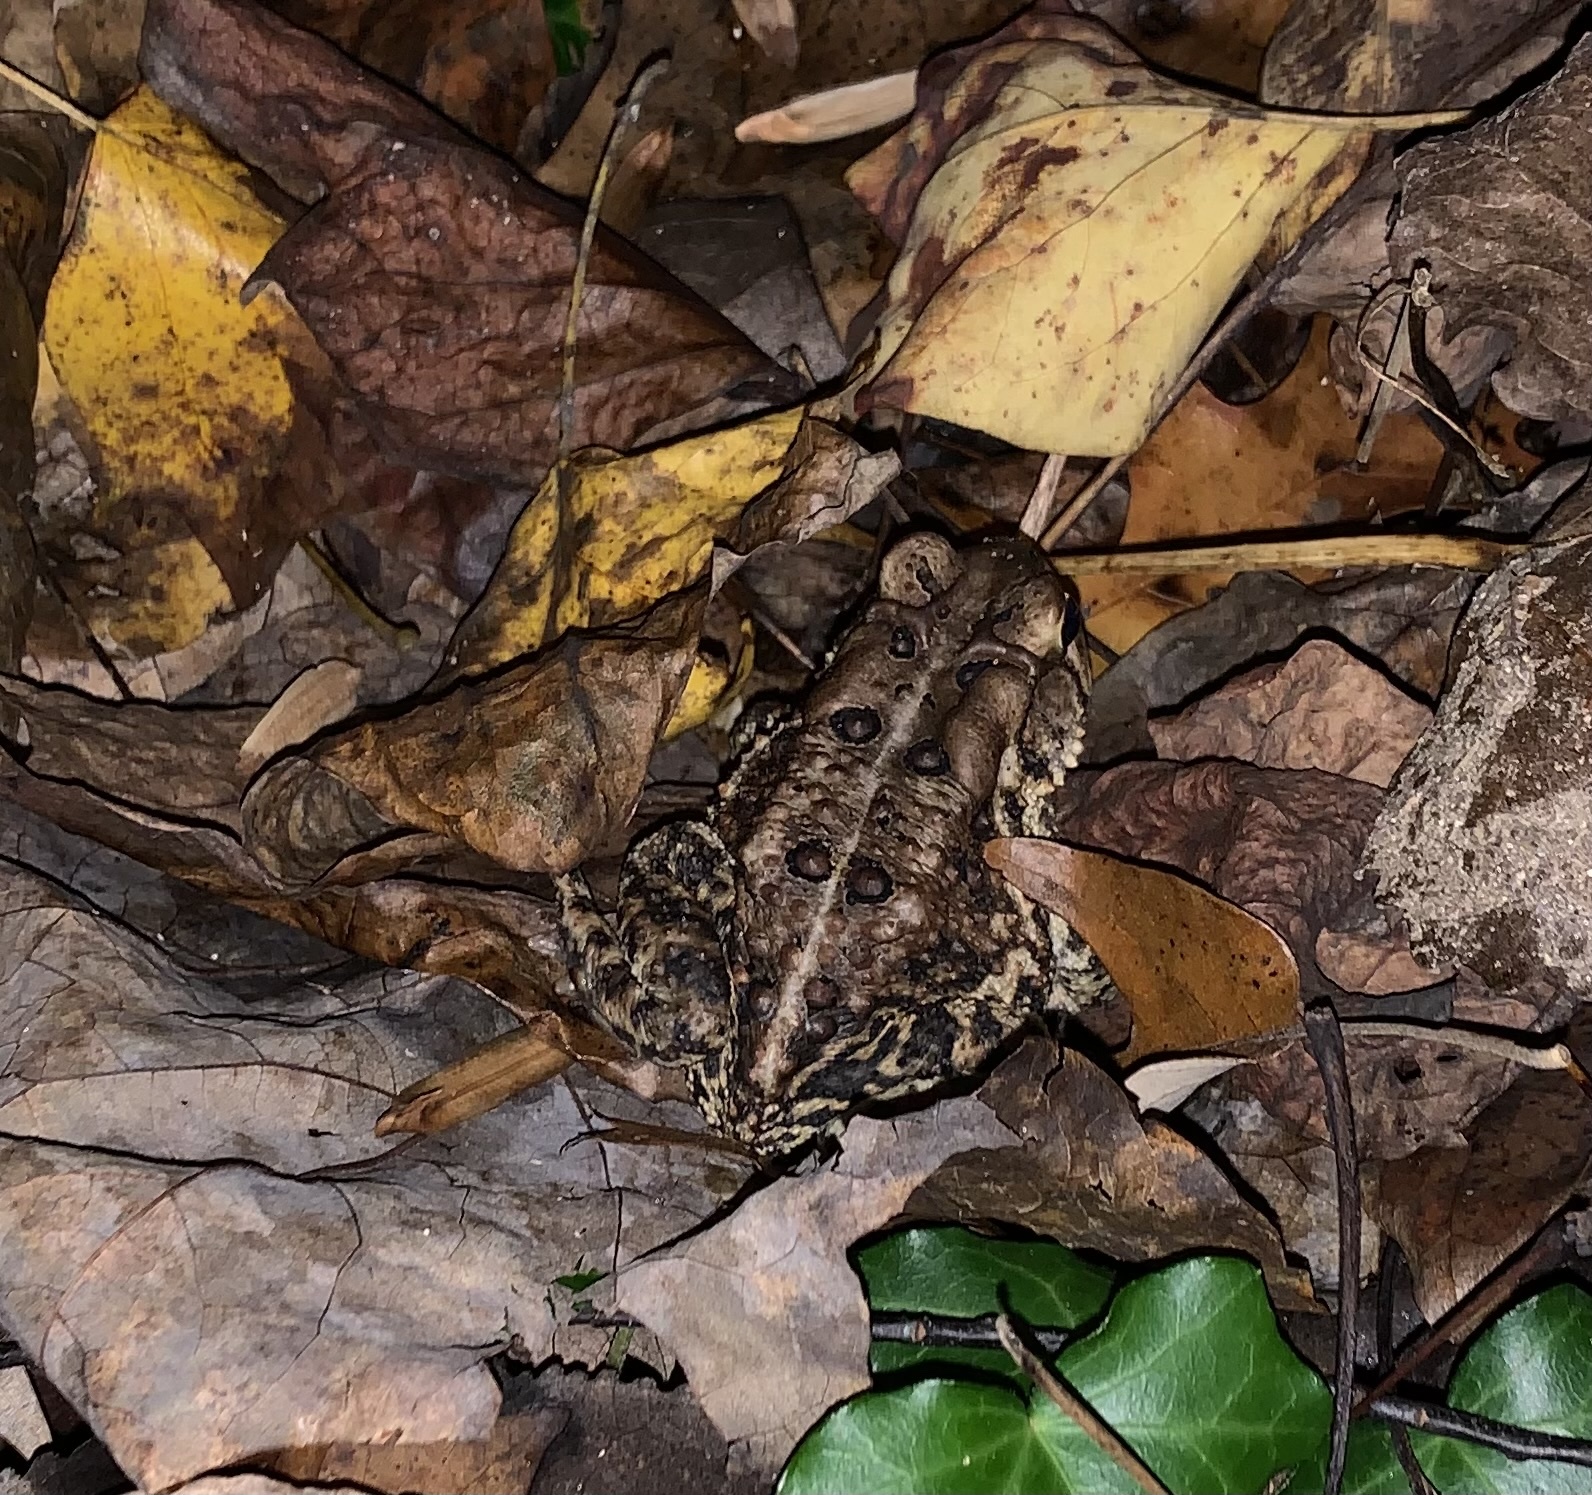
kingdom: Animalia
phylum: Chordata
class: Amphibia
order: Anura
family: Bufonidae
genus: Anaxyrus
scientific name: Anaxyrus americanus
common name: American toad
